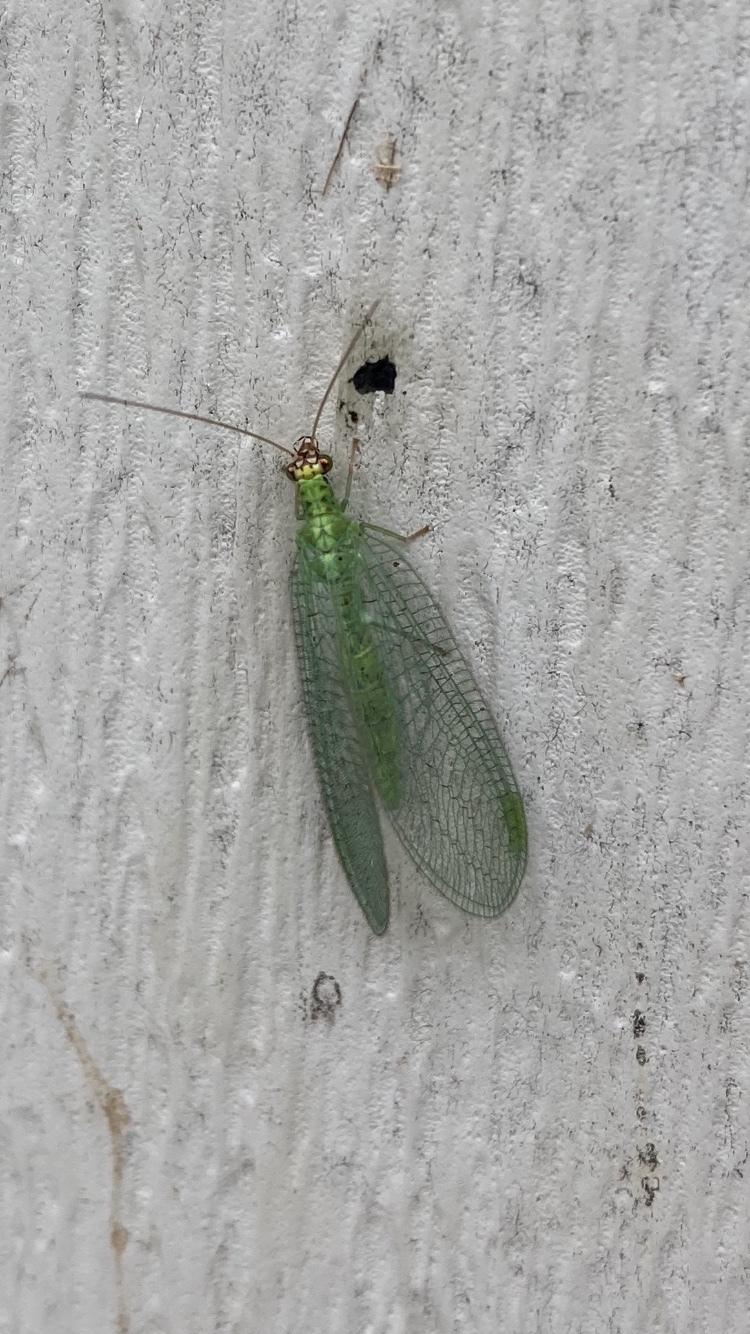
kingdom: Animalia
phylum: Arthropoda
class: Insecta
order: Neuroptera
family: Chrysopidae
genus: Chrysopa
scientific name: Chrysopa oculata
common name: Golden-eyed lacewing
